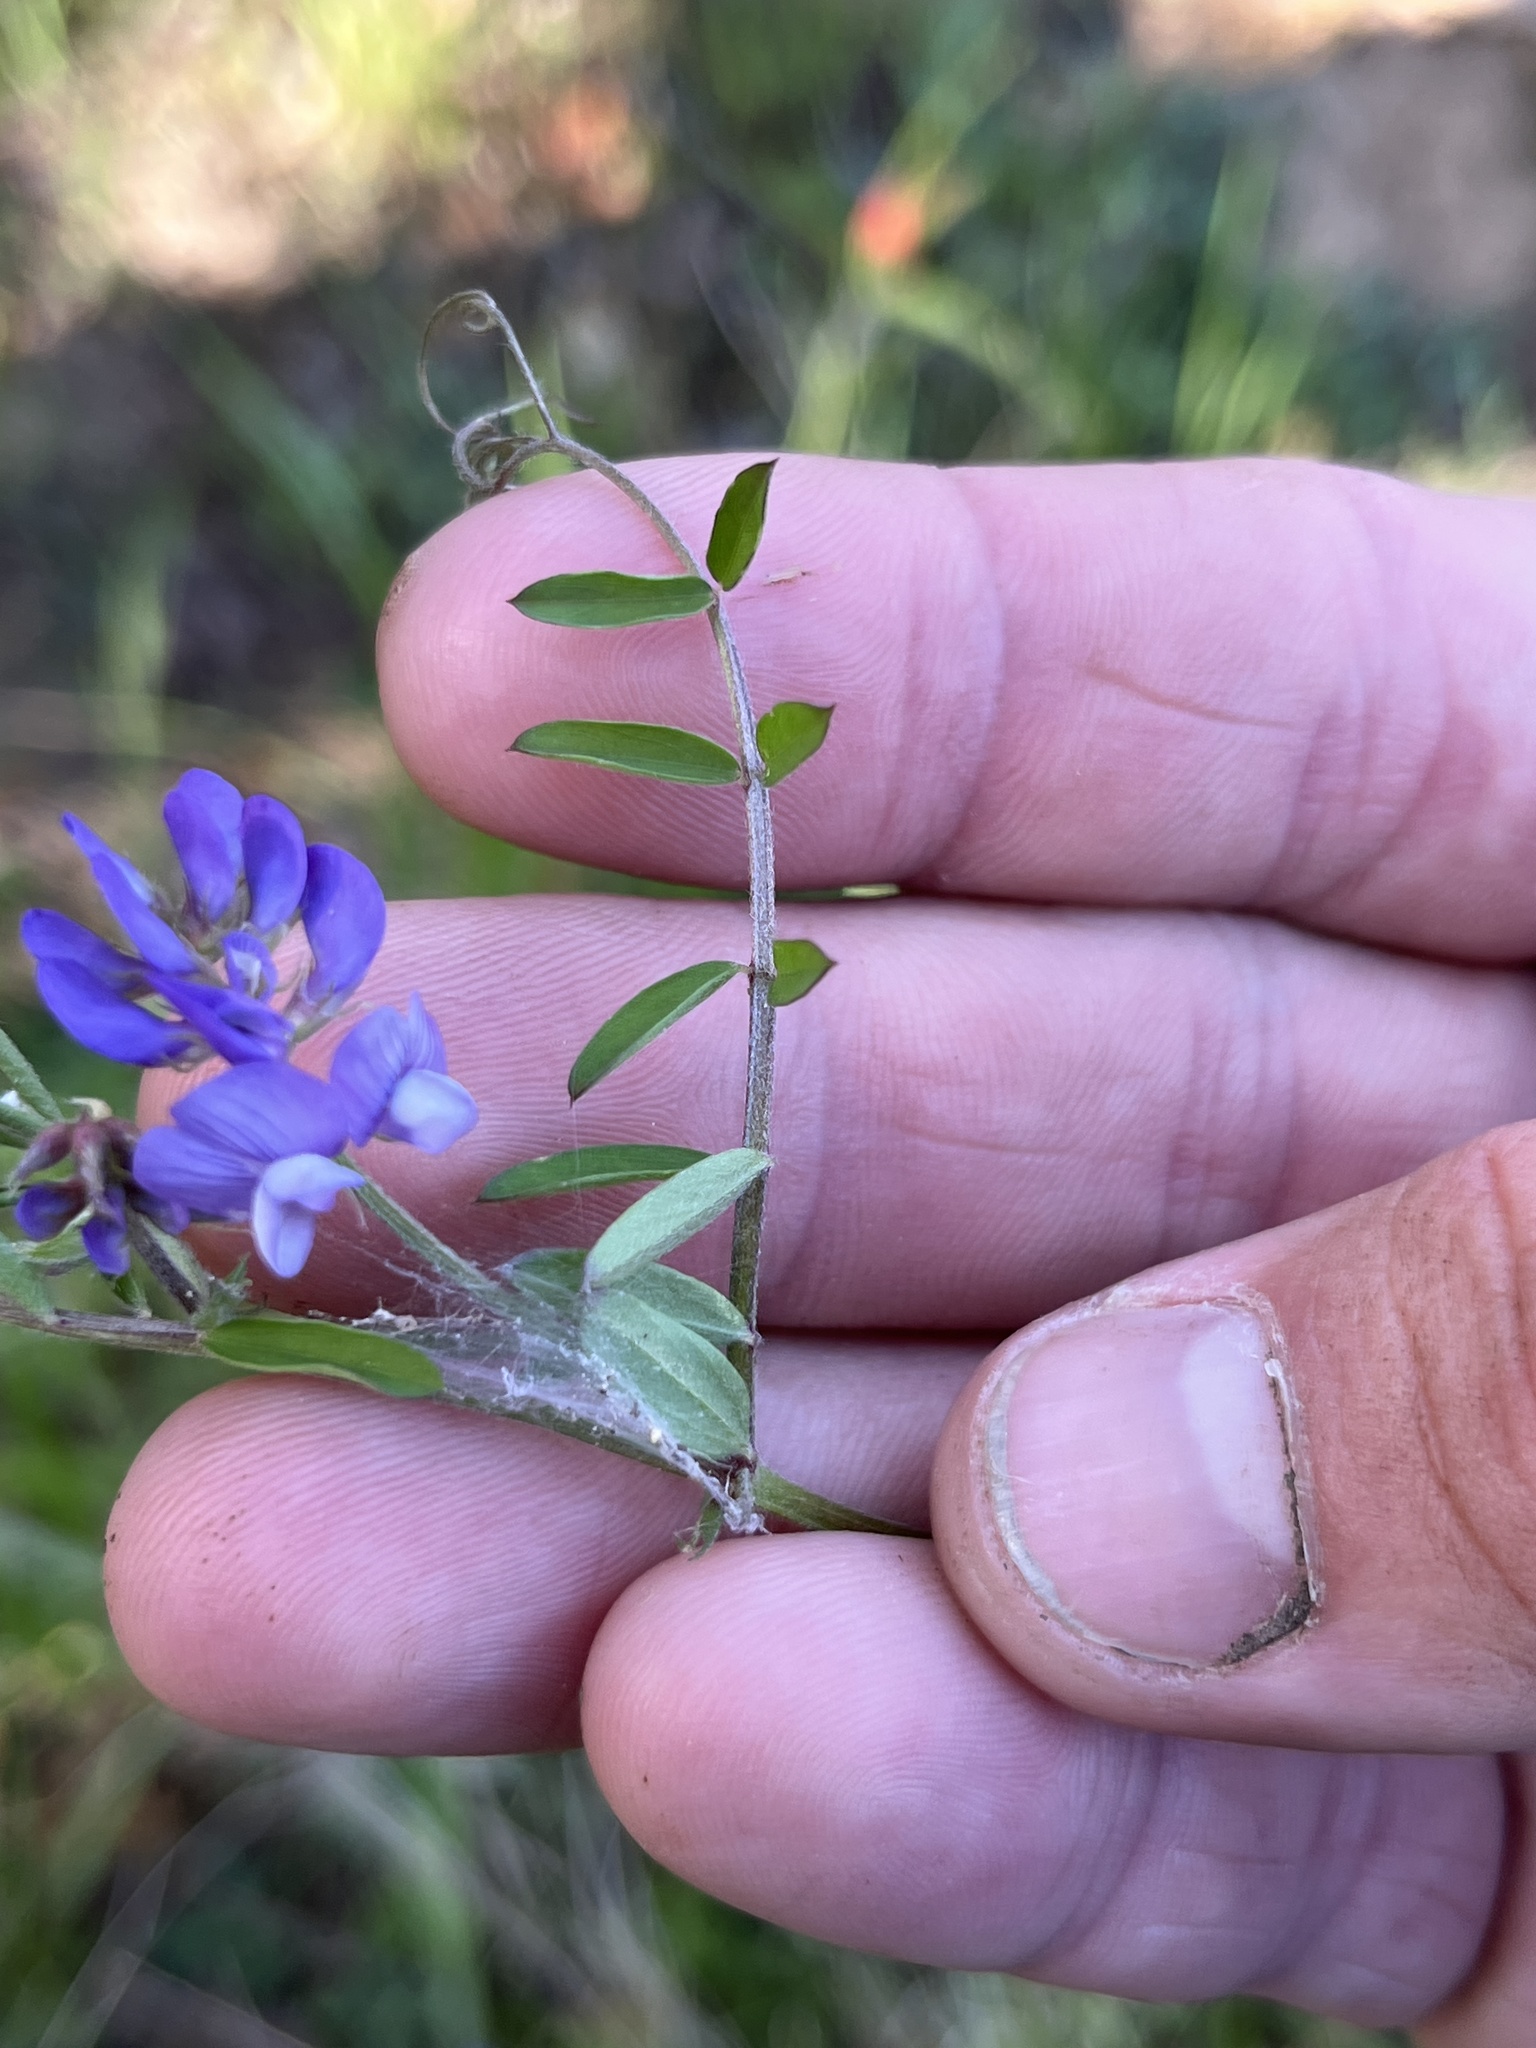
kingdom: Plantae
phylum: Tracheophyta
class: Magnoliopsida
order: Fabales
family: Fabaceae
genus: Vicia
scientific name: Vicia ludoviciana
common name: Louisiana vetch
